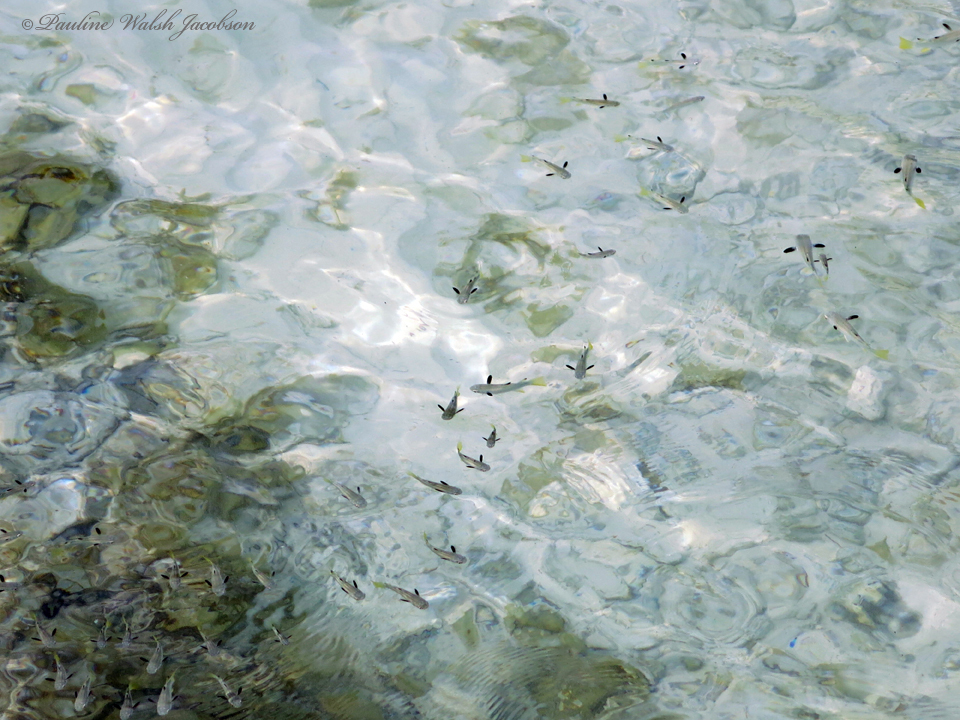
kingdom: Animalia
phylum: Chordata
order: Mugiliformes
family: Mugilidae
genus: Ellochelon
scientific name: Ellochelon vaigiensis
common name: Squaretail mullet
